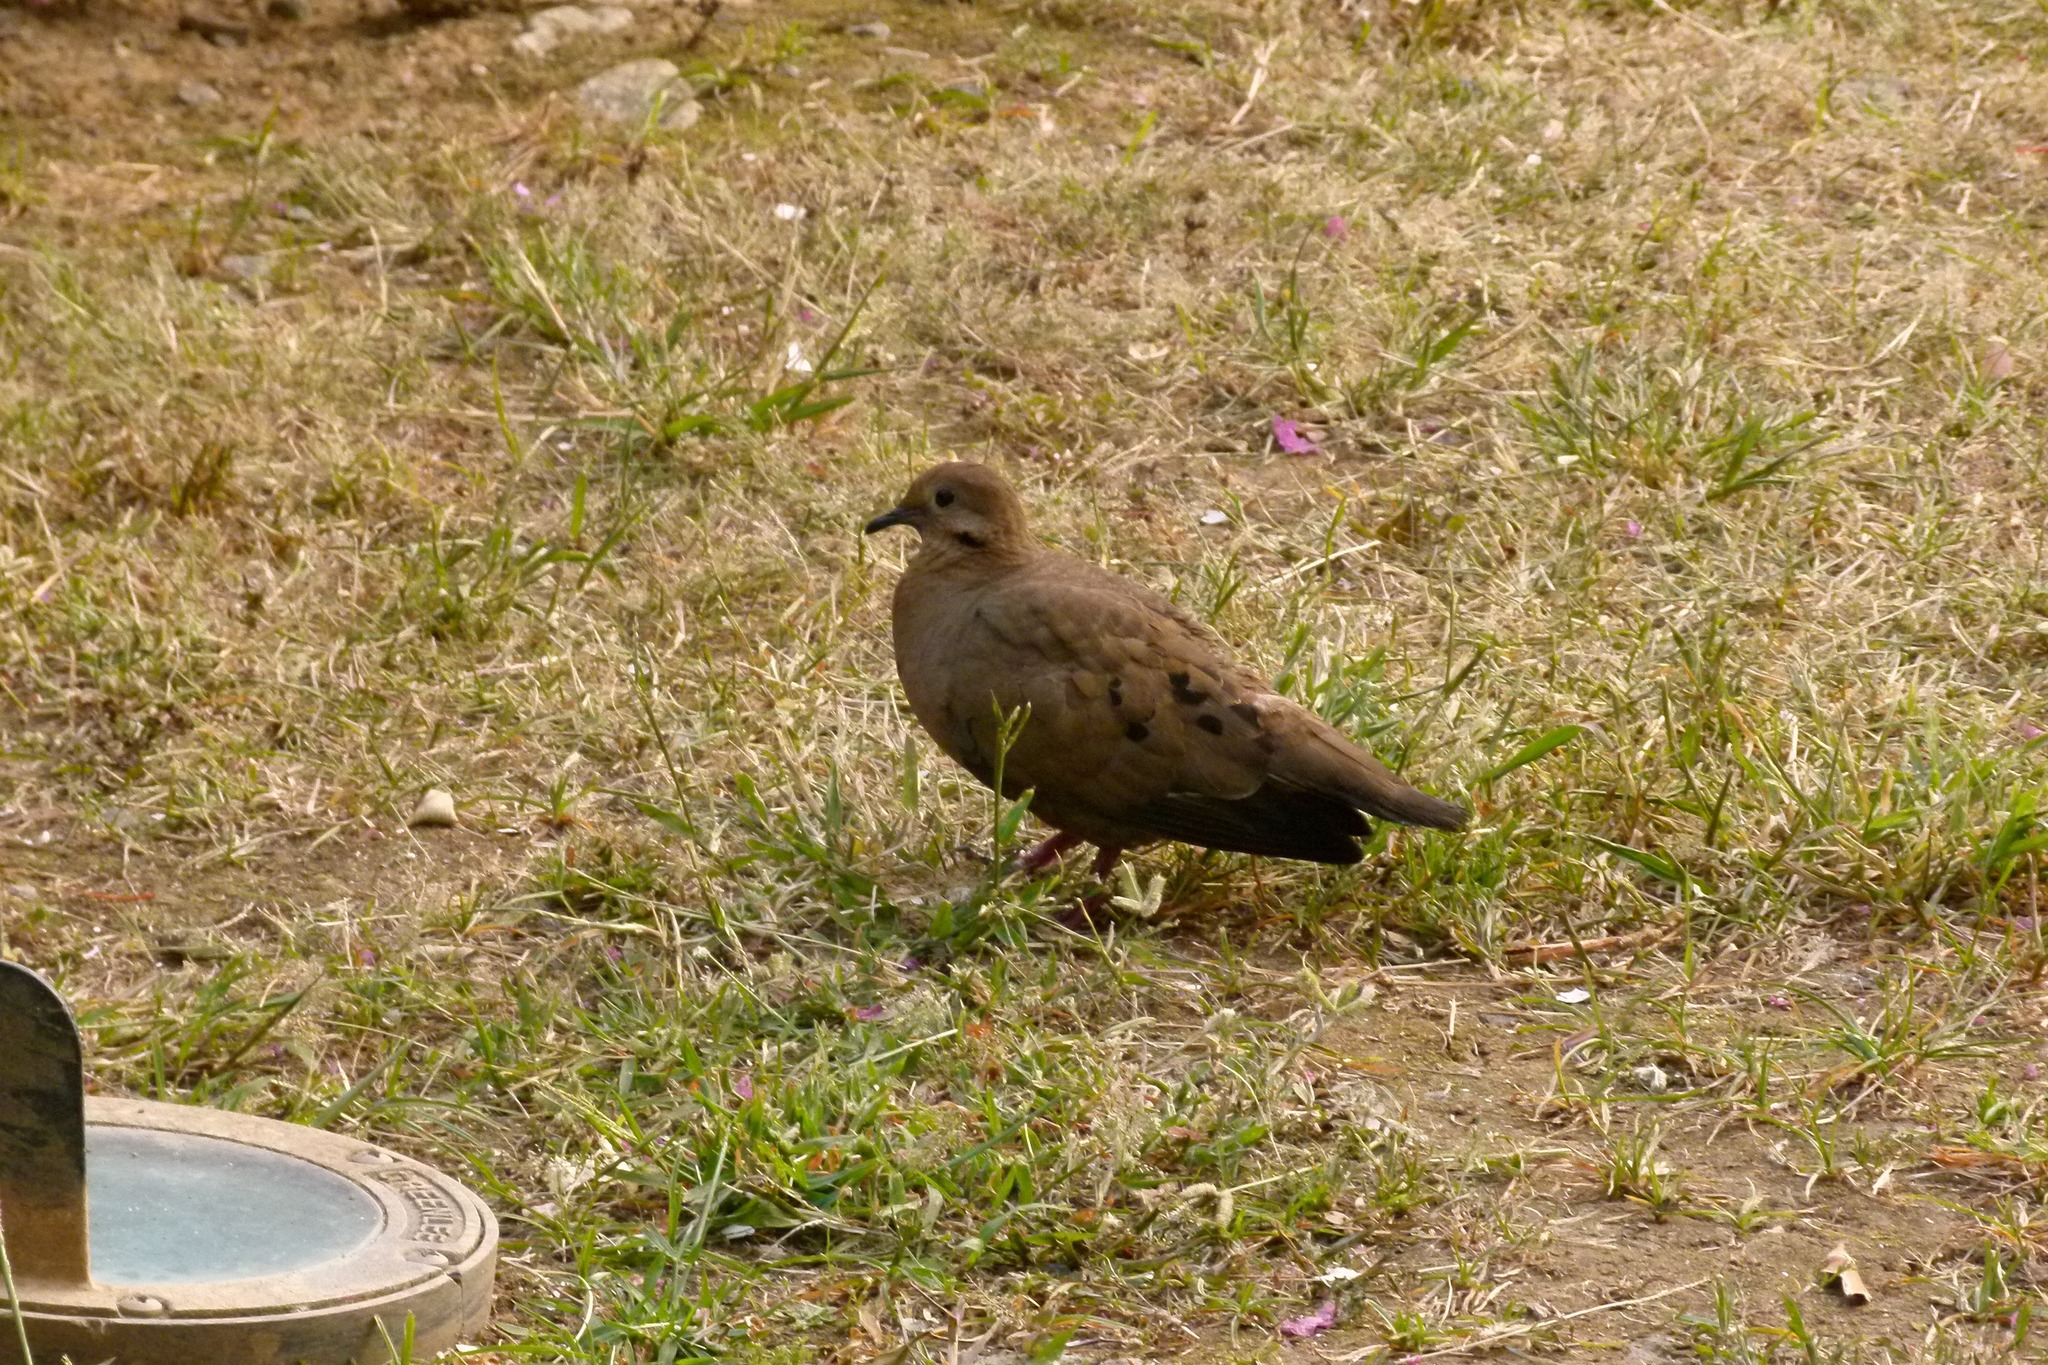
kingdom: Animalia
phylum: Chordata
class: Aves
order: Columbiformes
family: Columbidae
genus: Zenaida
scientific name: Zenaida aurita
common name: Zenaida dove
